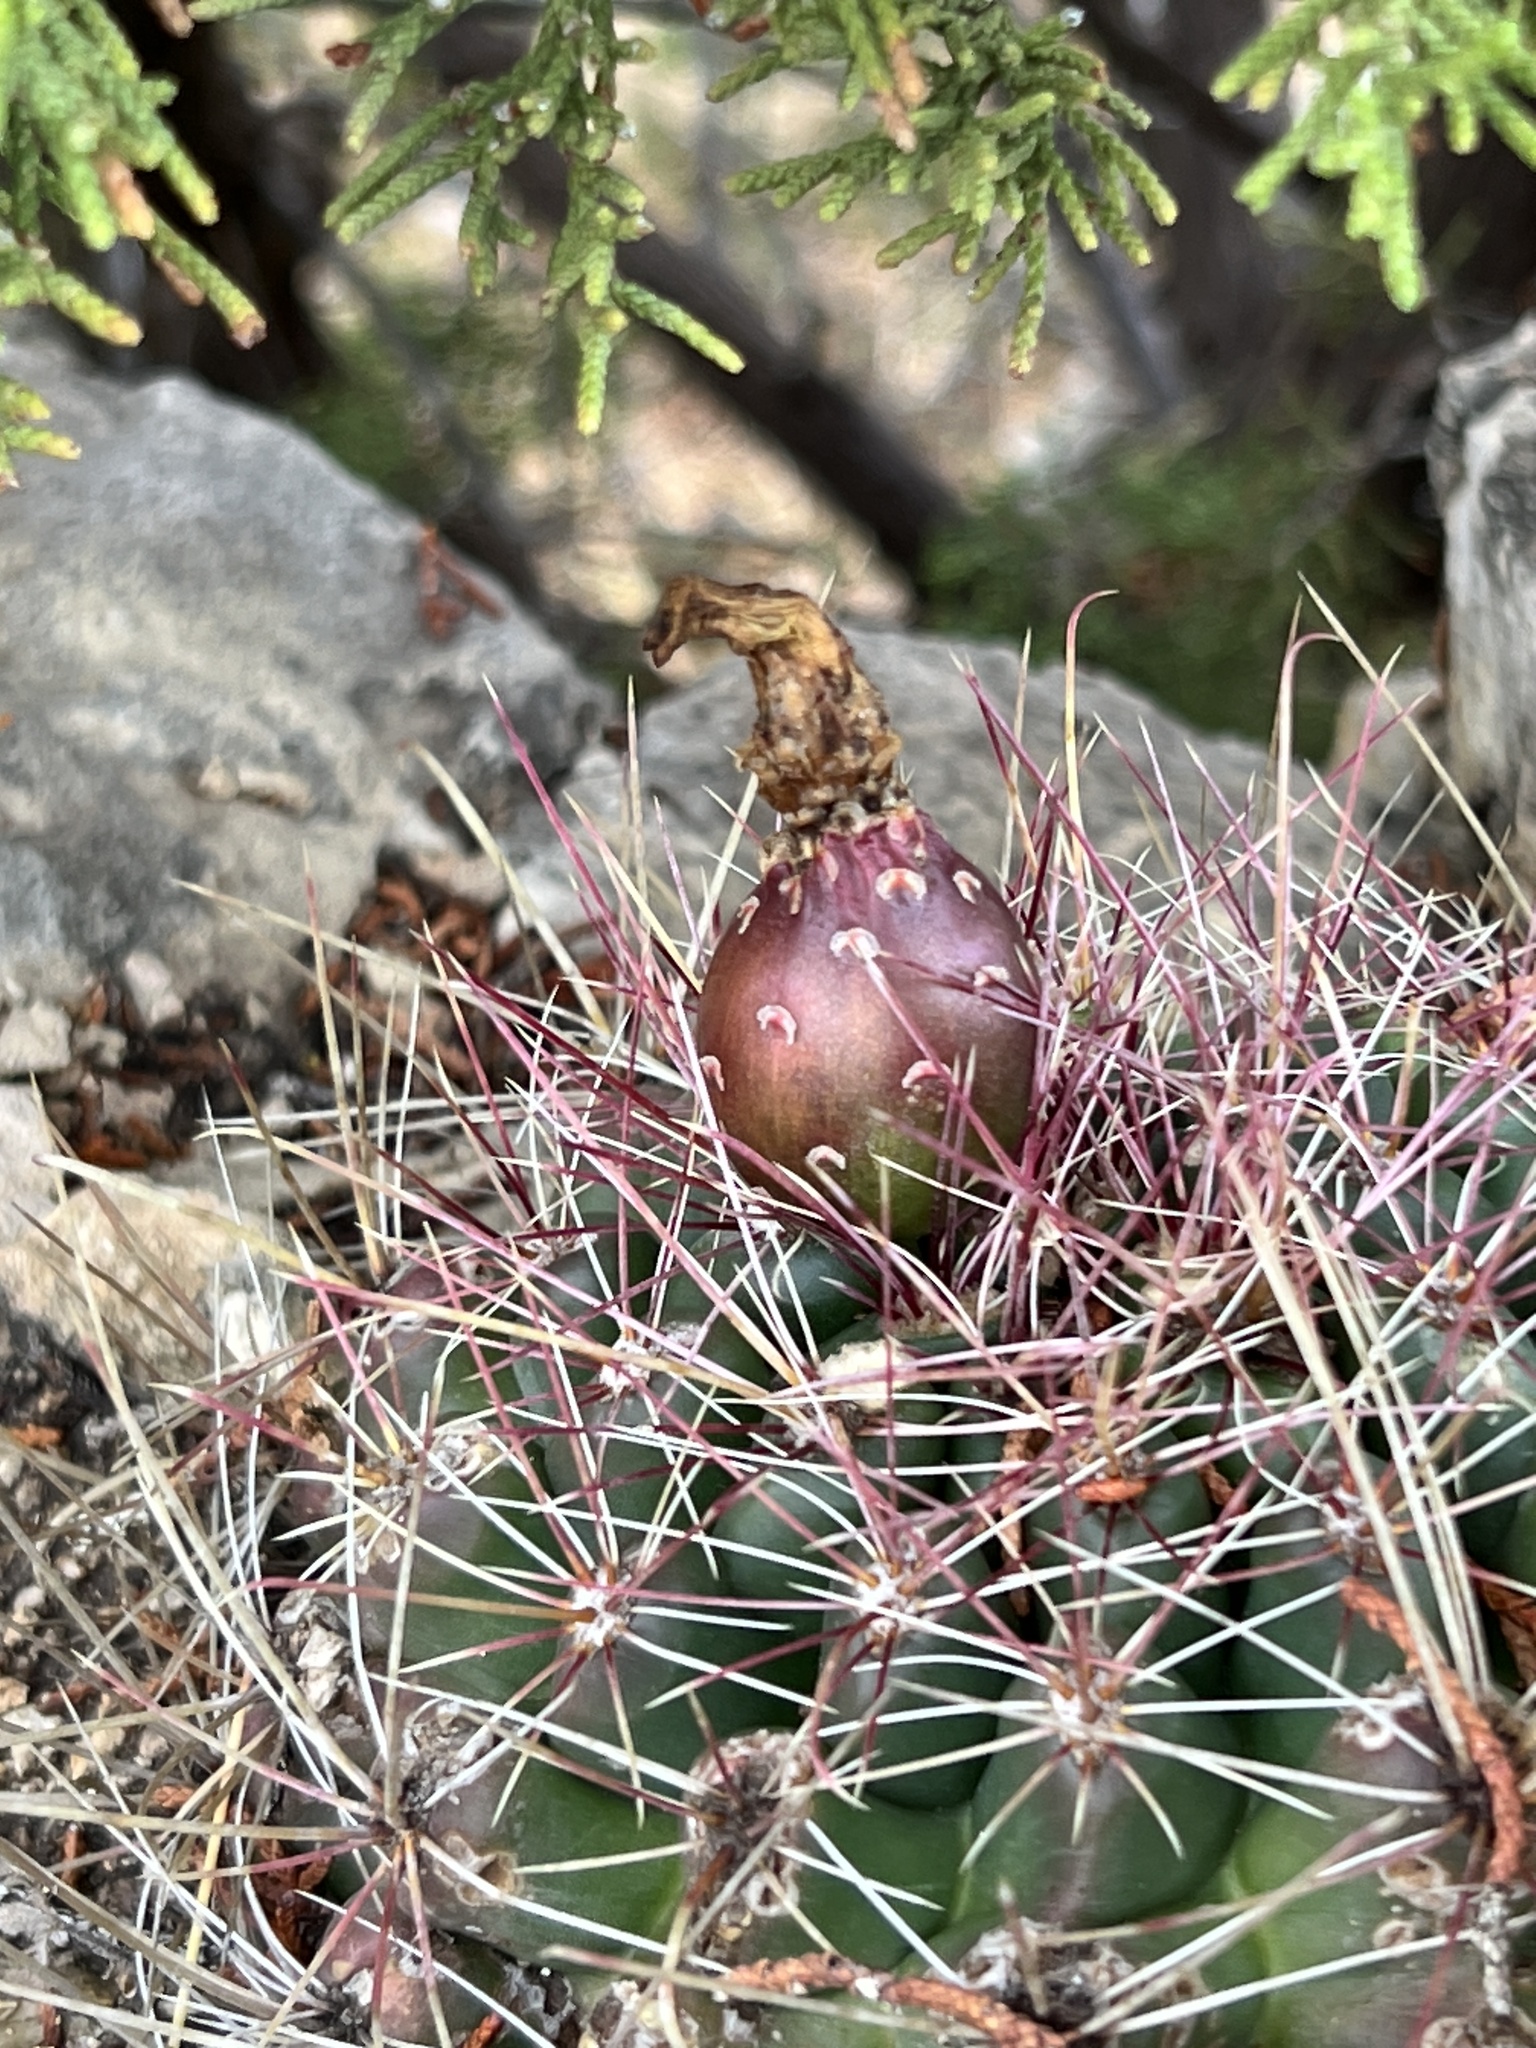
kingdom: Plantae
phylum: Tracheophyta
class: Magnoliopsida
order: Caryophyllales
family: Cactaceae
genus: Bisnaga
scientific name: Bisnaga hamatacantha
